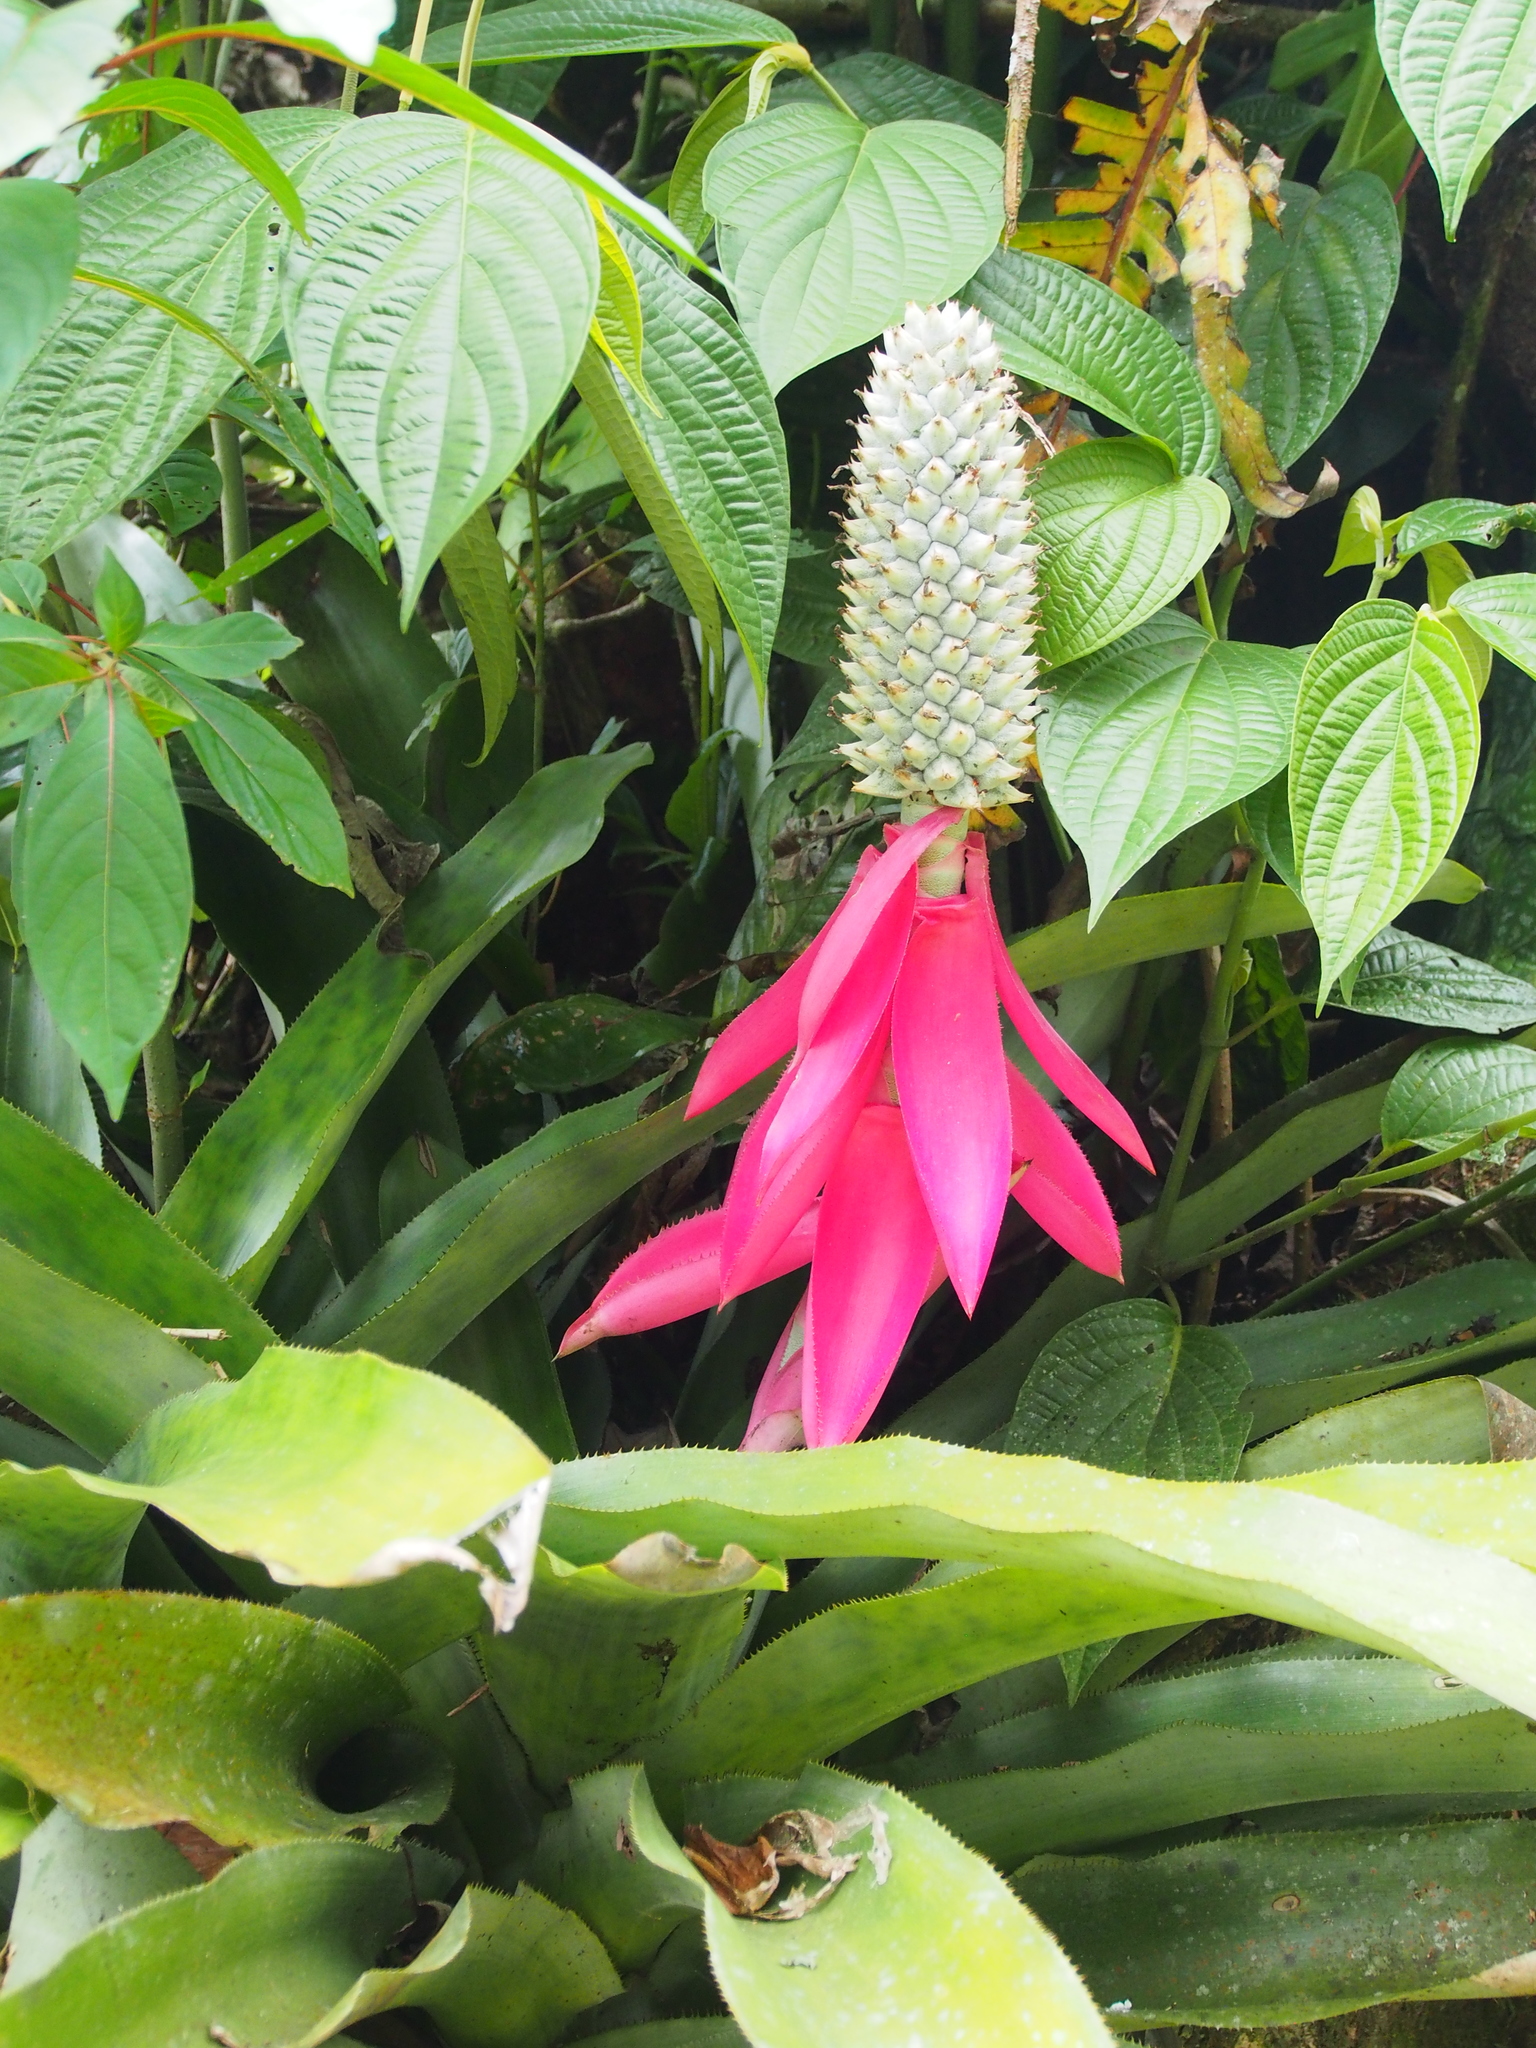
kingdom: Plantae
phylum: Tracheophyta
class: Liliopsida
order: Poales
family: Bromeliaceae
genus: Aechmea
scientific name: Aechmea mariae-reginae
